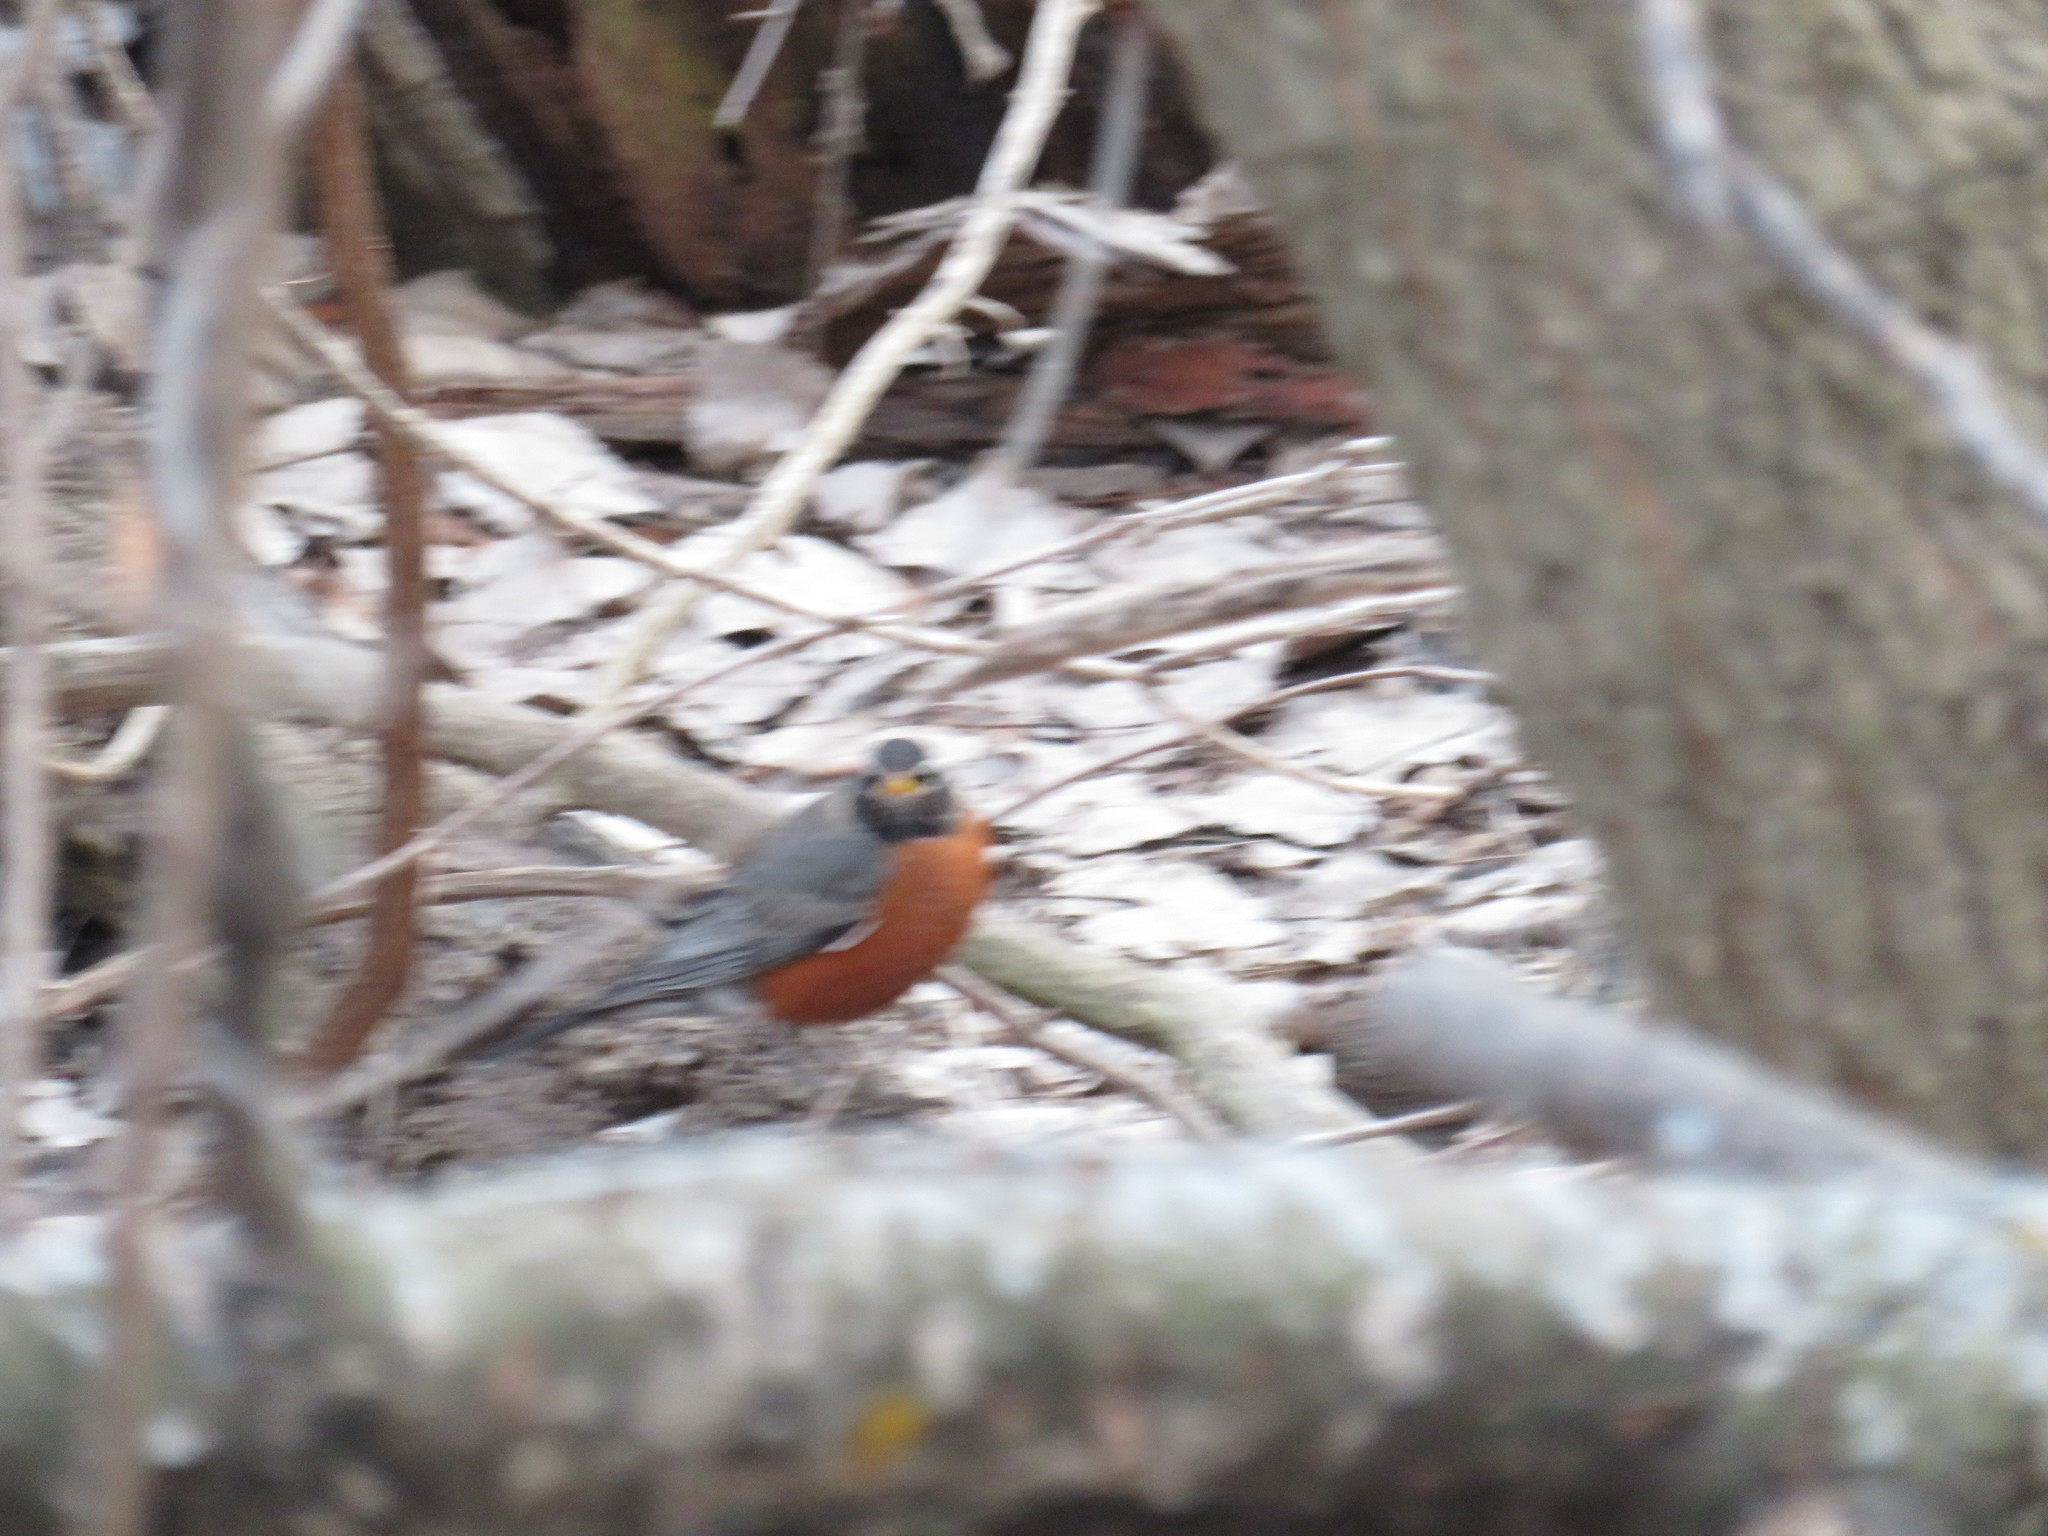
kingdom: Animalia
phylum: Chordata
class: Aves
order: Passeriformes
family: Turdidae
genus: Turdus
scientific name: Turdus migratorius
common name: American robin
